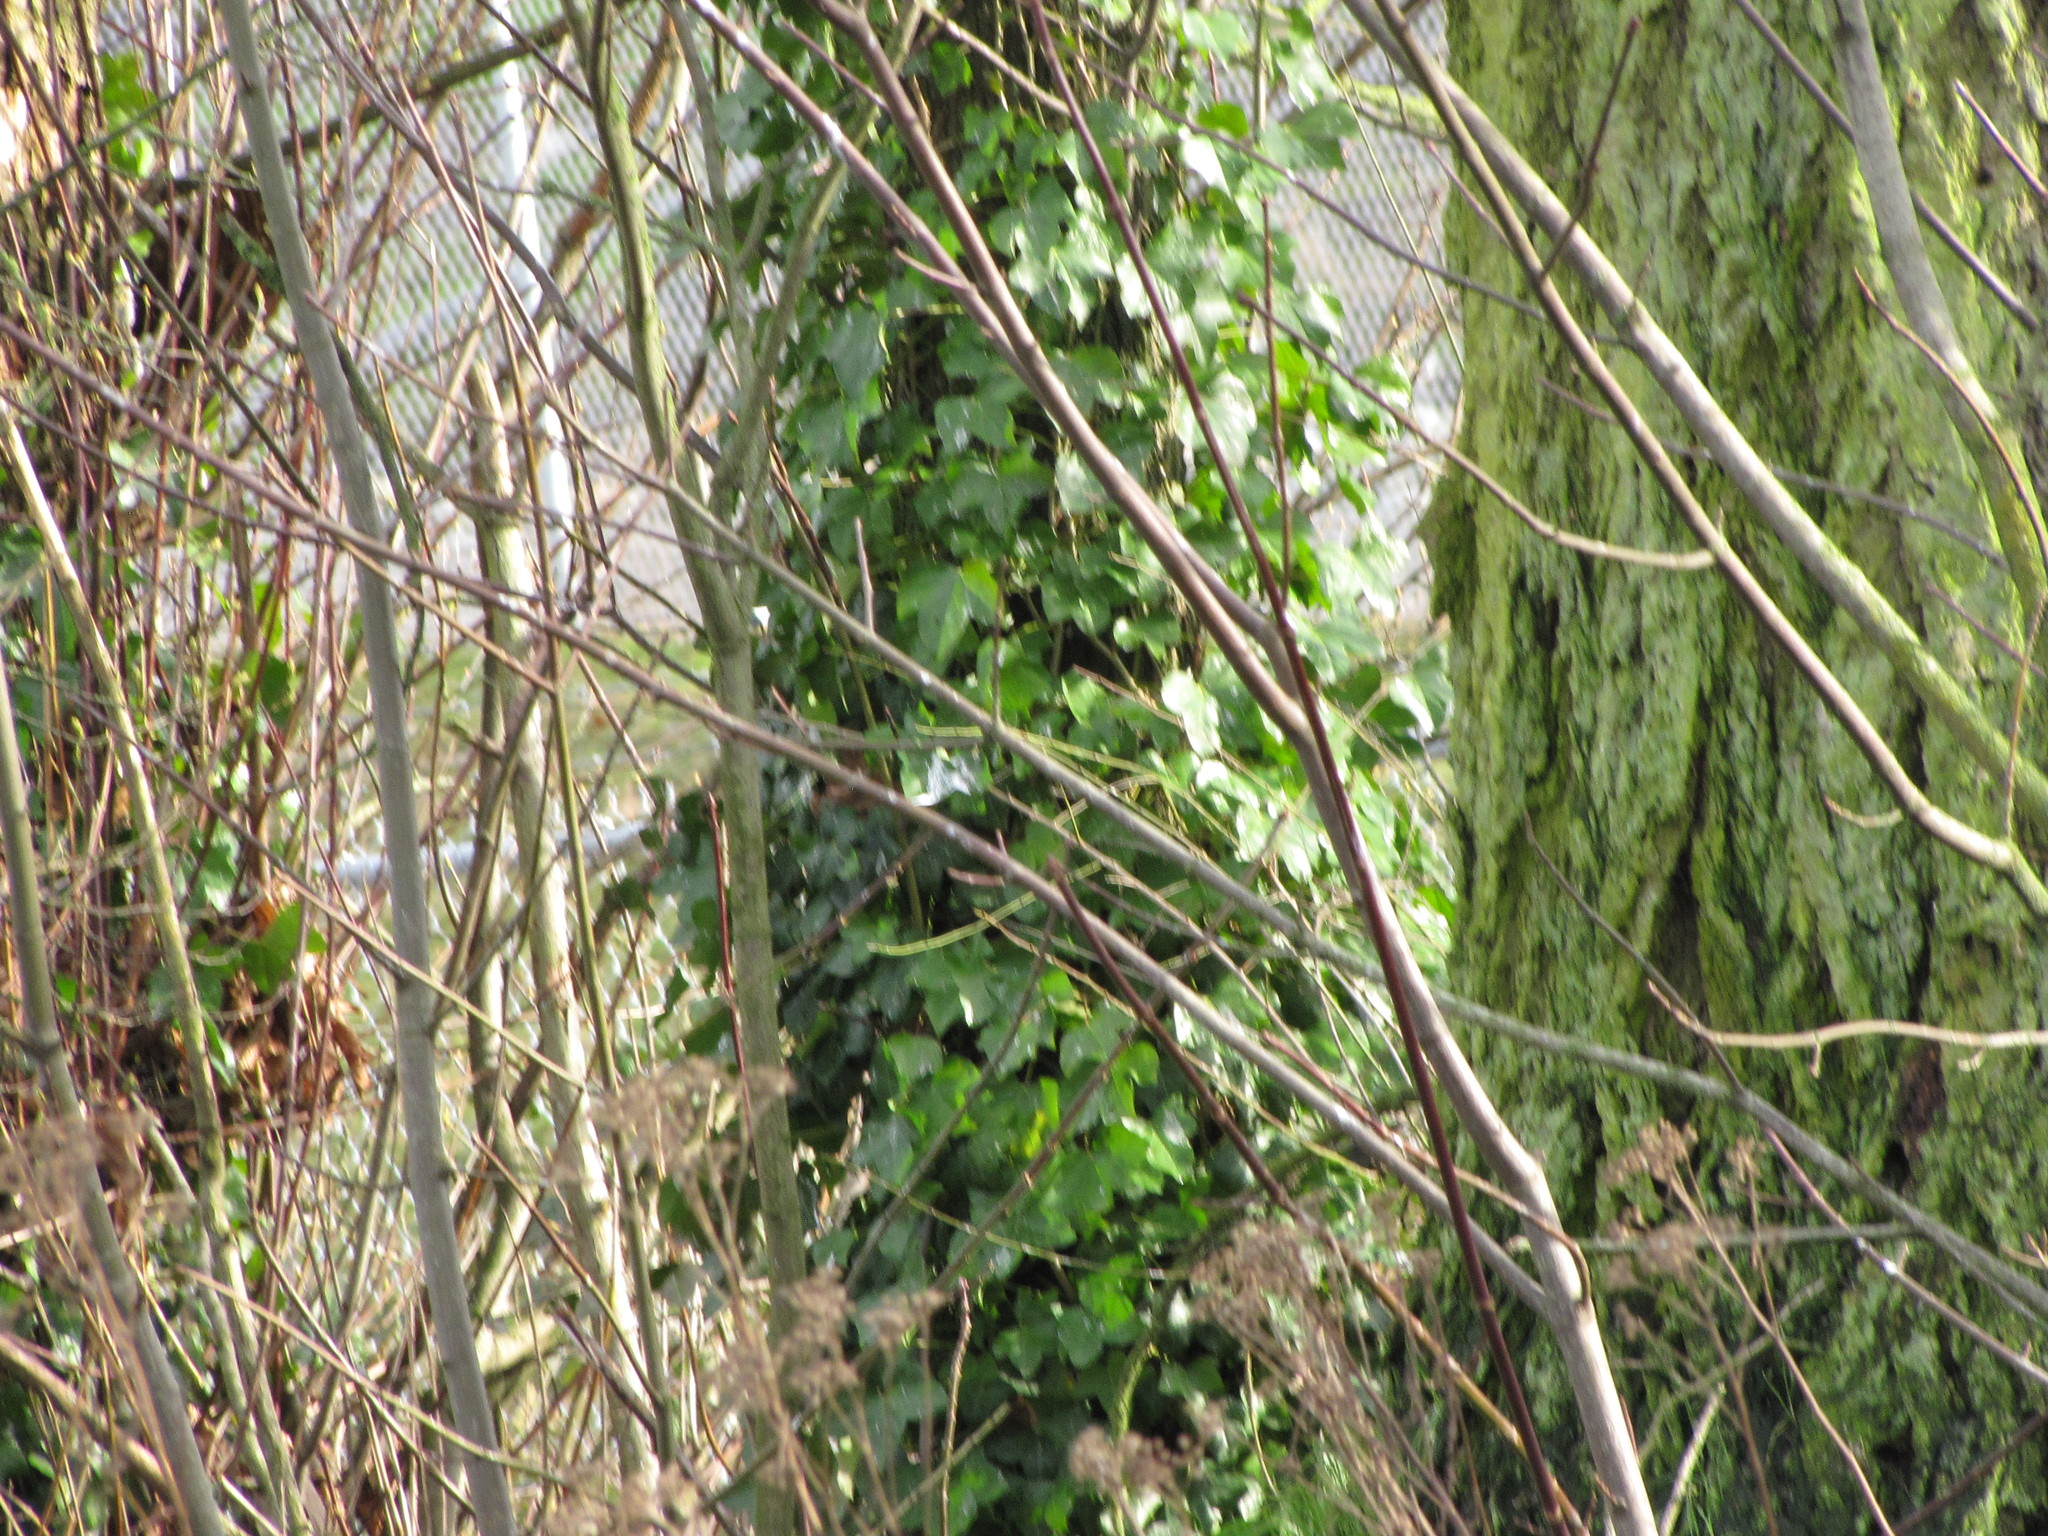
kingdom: Plantae
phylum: Tracheophyta
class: Magnoliopsida
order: Apiales
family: Araliaceae
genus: Hedera
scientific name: Hedera helix
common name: Ivy
